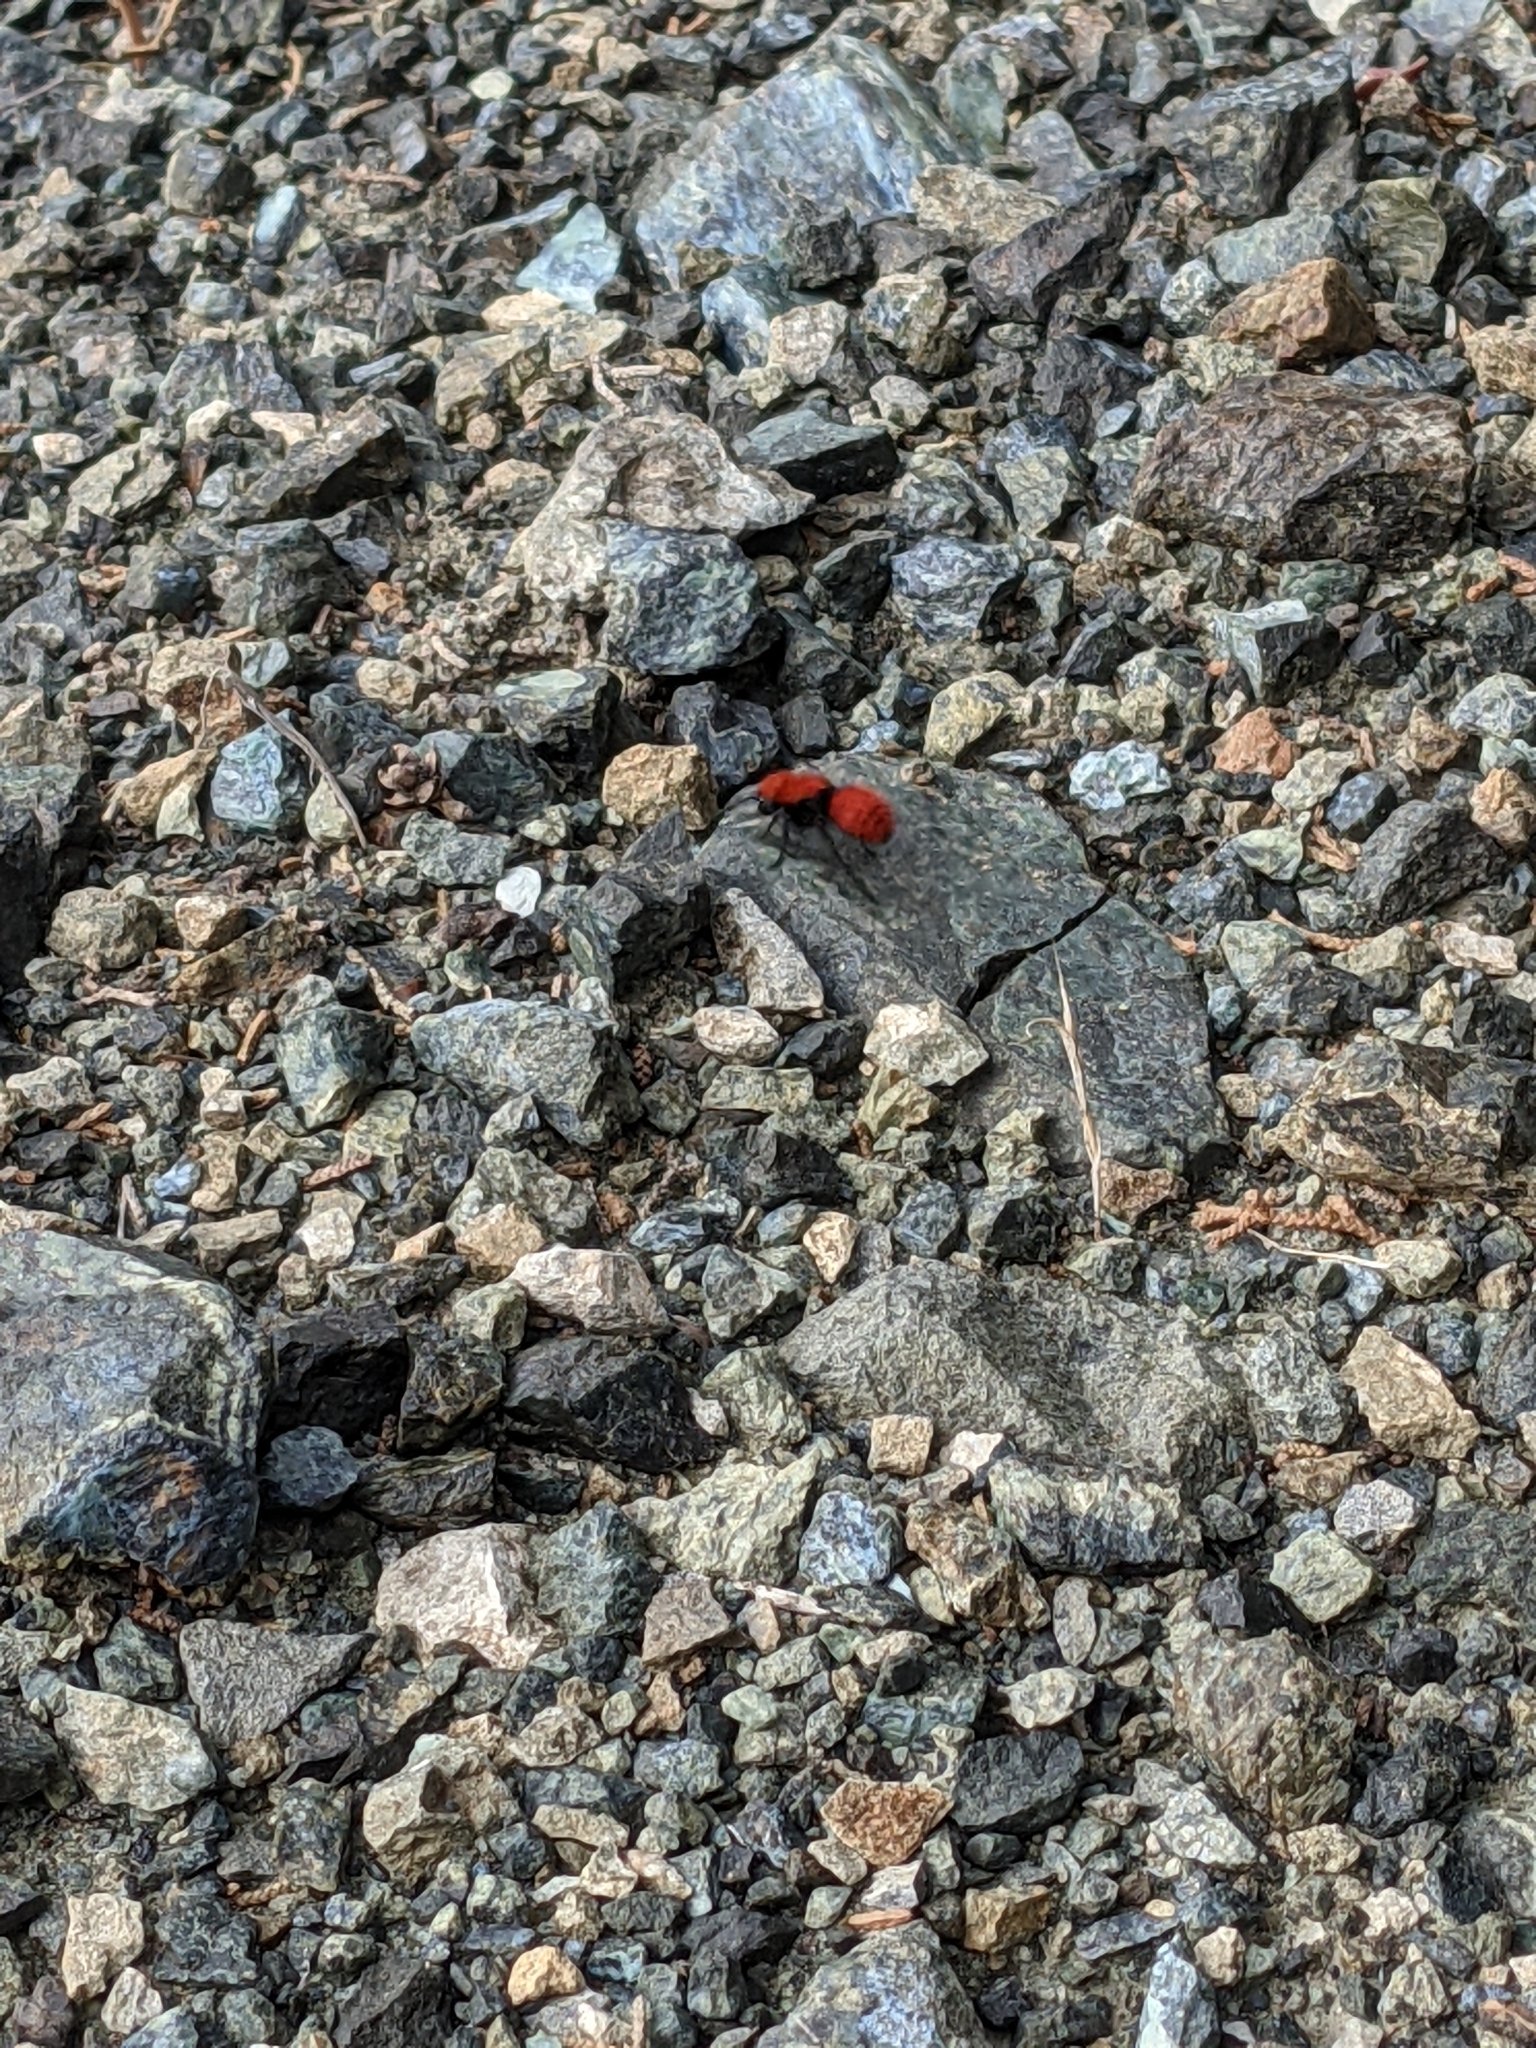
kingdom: Animalia
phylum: Arthropoda
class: Insecta
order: Hymenoptera
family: Mutillidae
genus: Dasymutilla
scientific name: Dasymutilla
